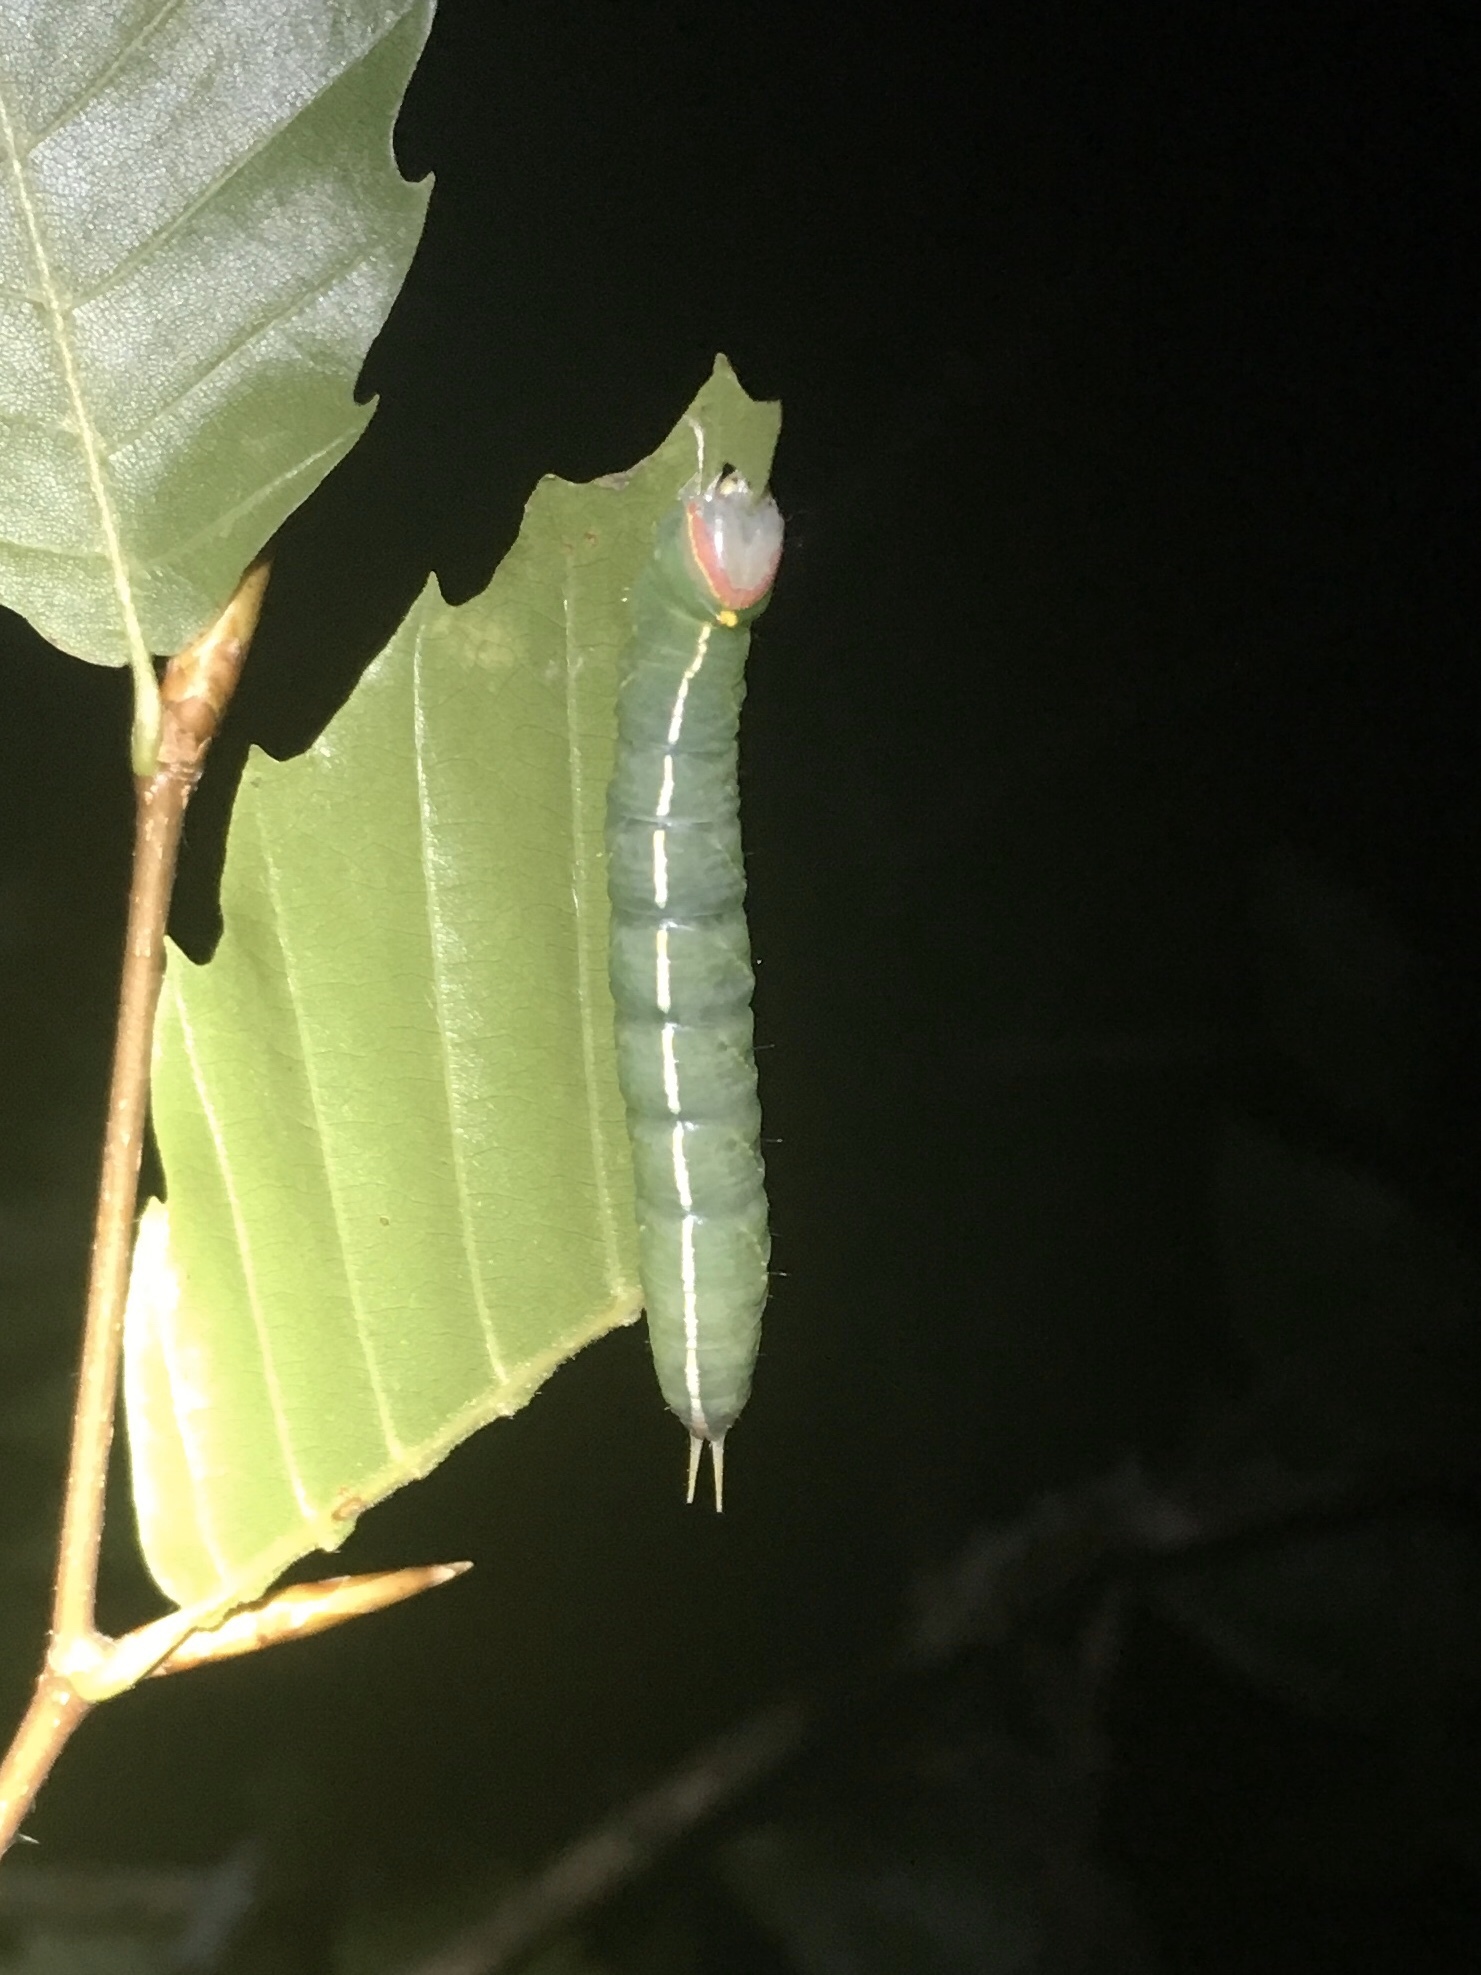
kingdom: Animalia
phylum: Arthropoda
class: Insecta
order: Lepidoptera
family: Notodontidae
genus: Macrurocampa
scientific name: Macrurocampa marthesia
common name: Mottled prominent
